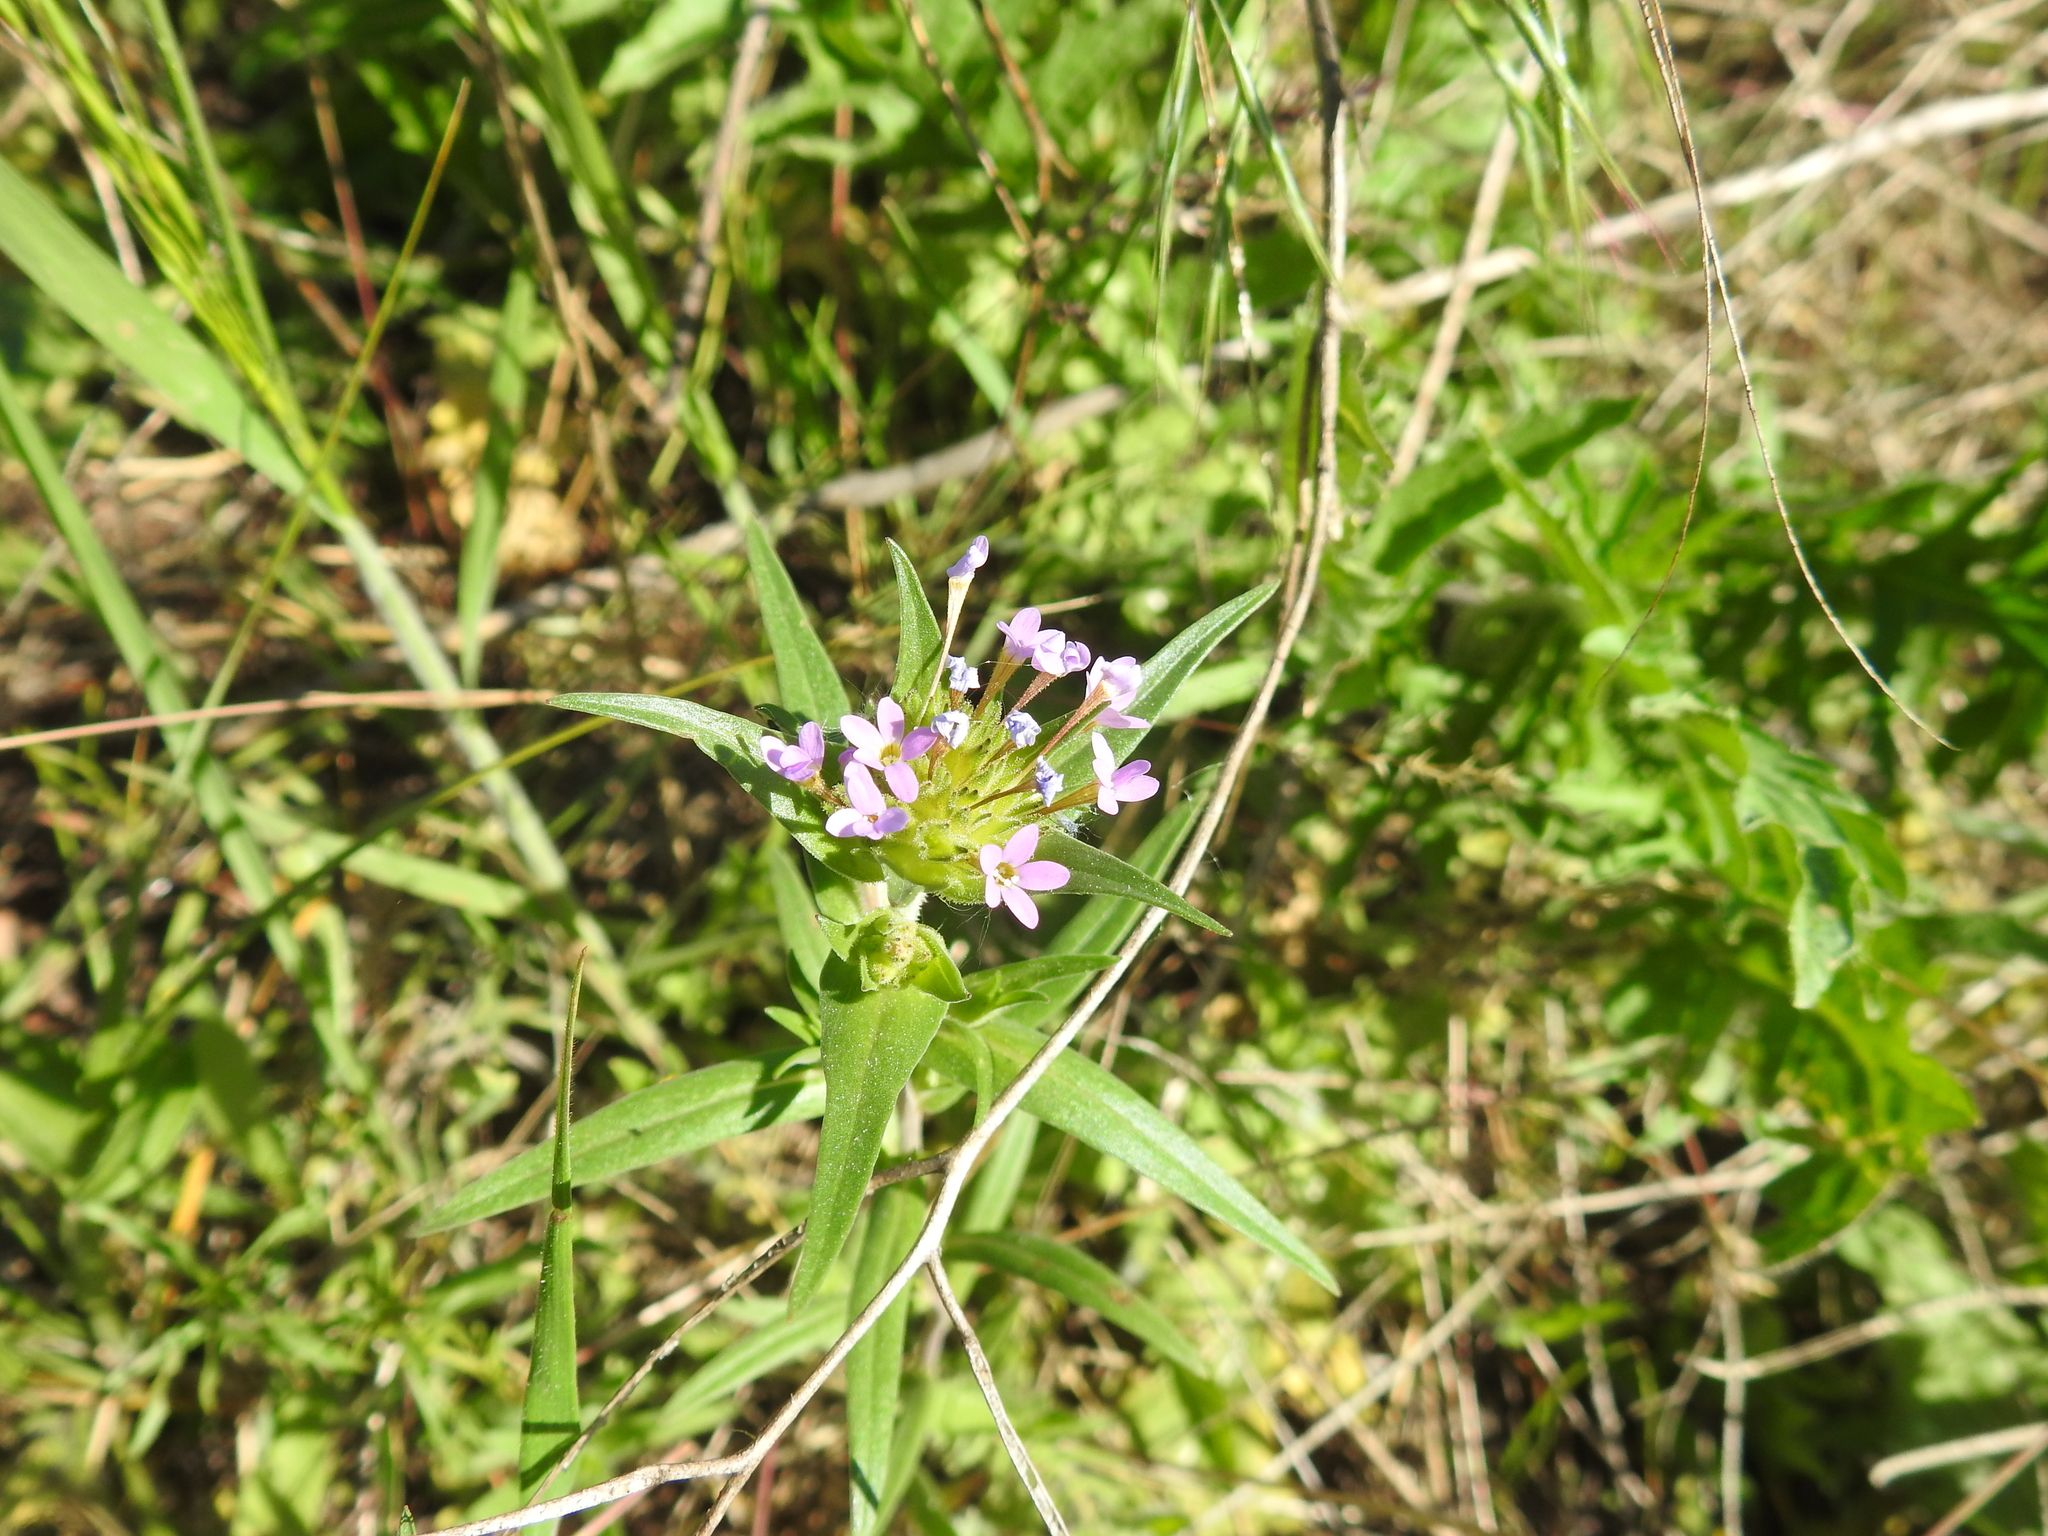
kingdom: Plantae
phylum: Tracheophyta
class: Magnoliopsida
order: Ericales
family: Polemoniaceae
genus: Collomia
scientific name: Collomia linearis
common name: Tiny trumpet
